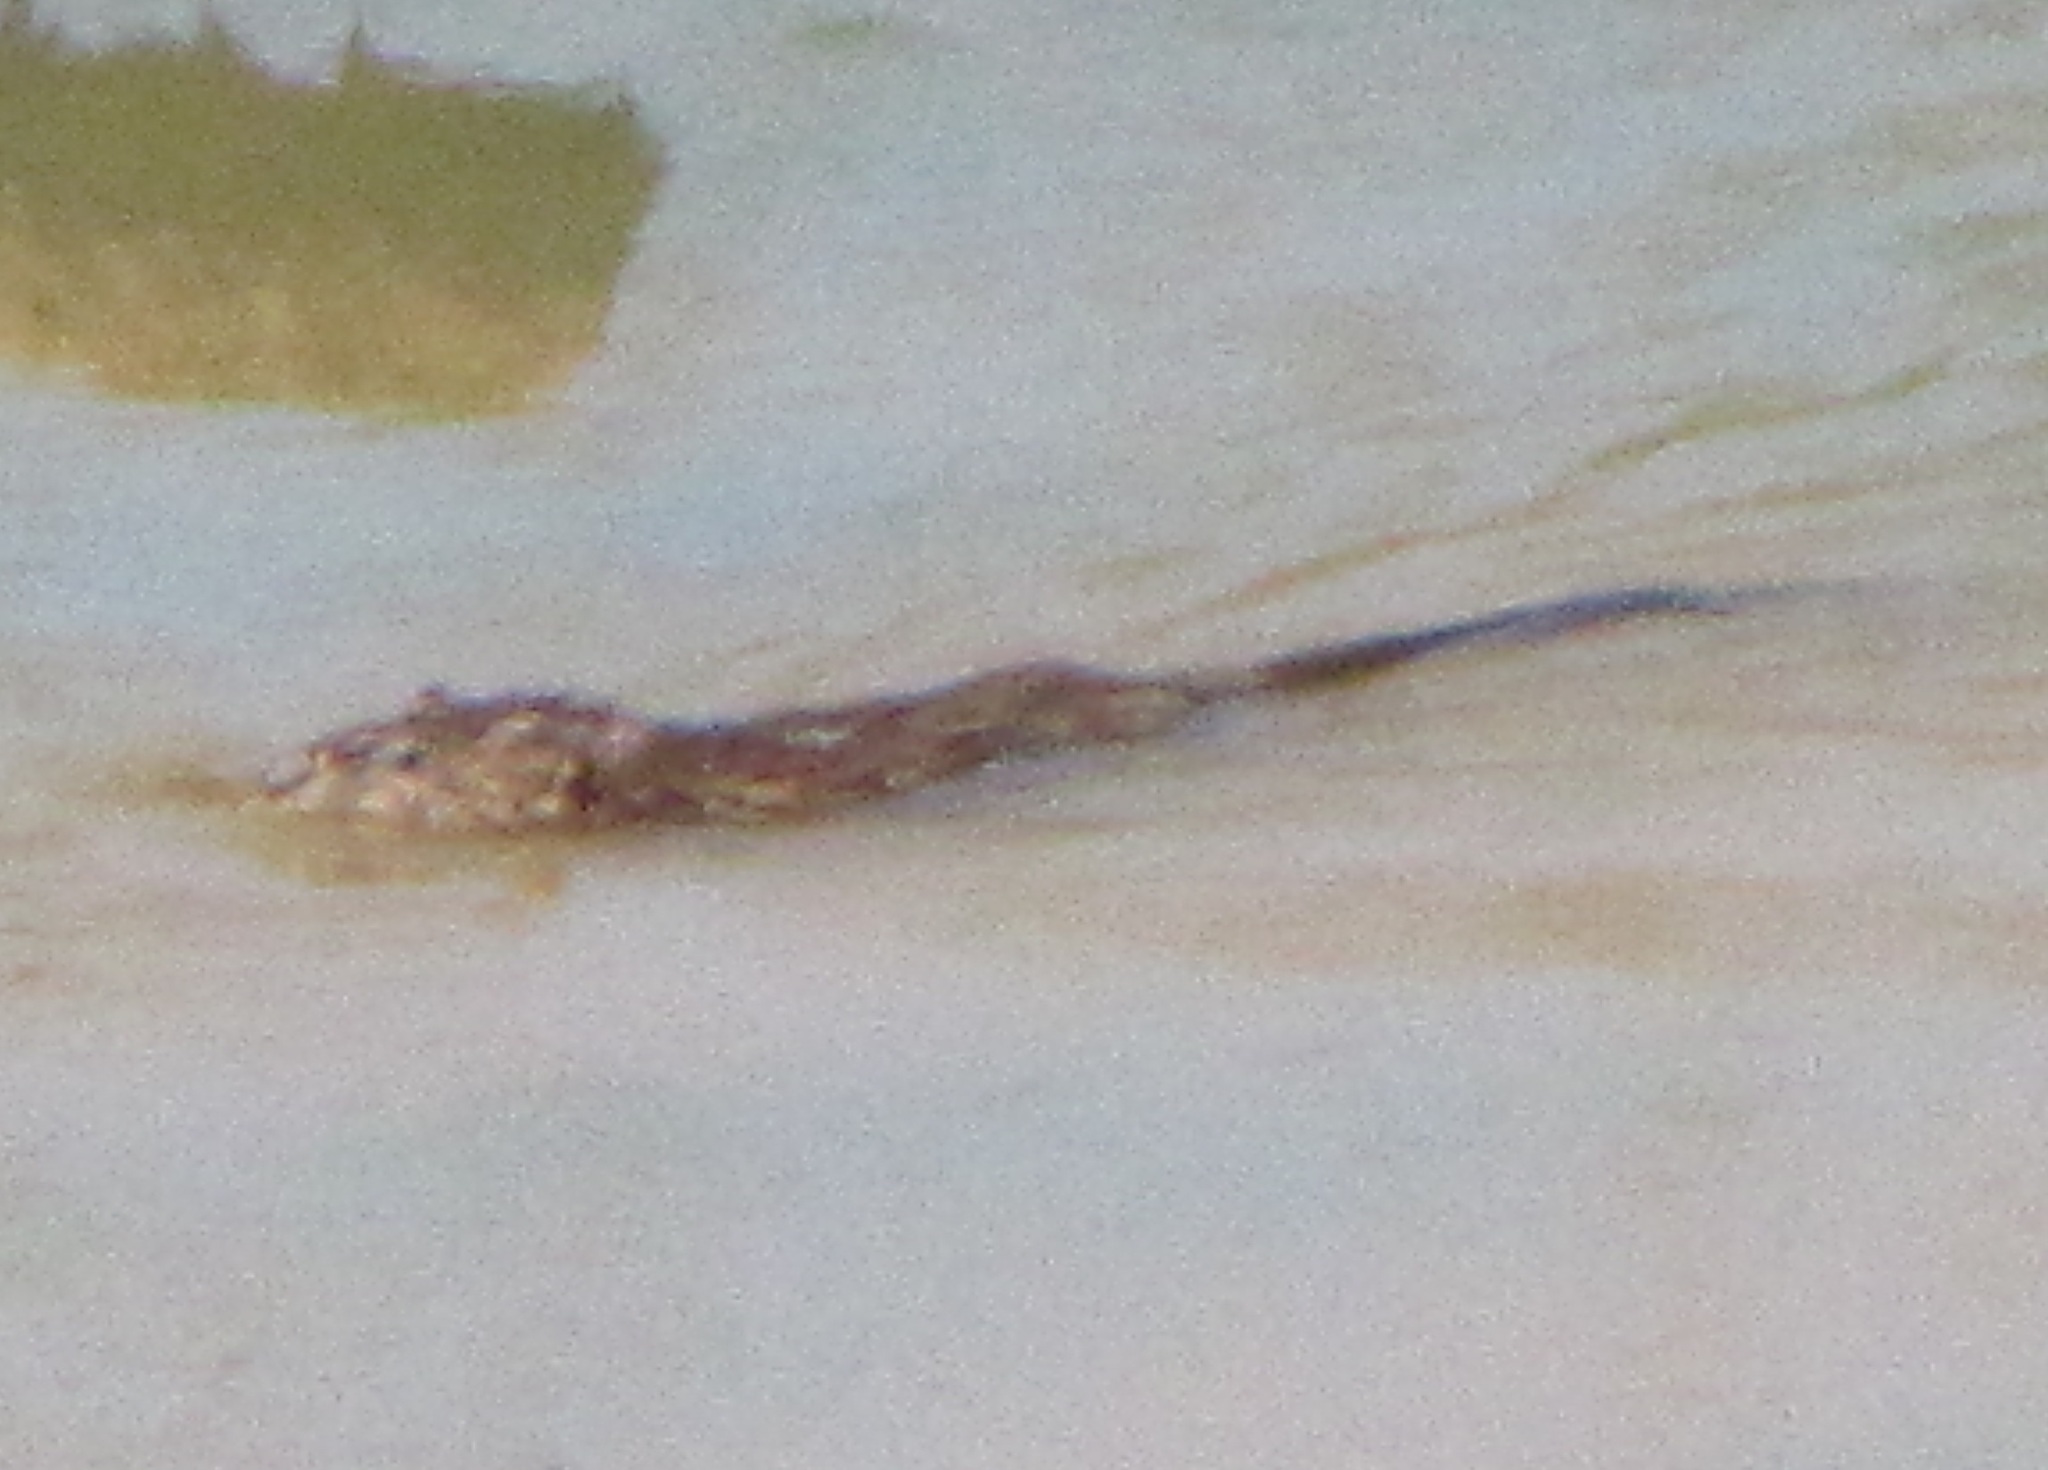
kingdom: Animalia
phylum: Chordata
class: Mammalia
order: Rodentia
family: Cricetidae
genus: Ondatra
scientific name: Ondatra zibethicus
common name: Muskrat
